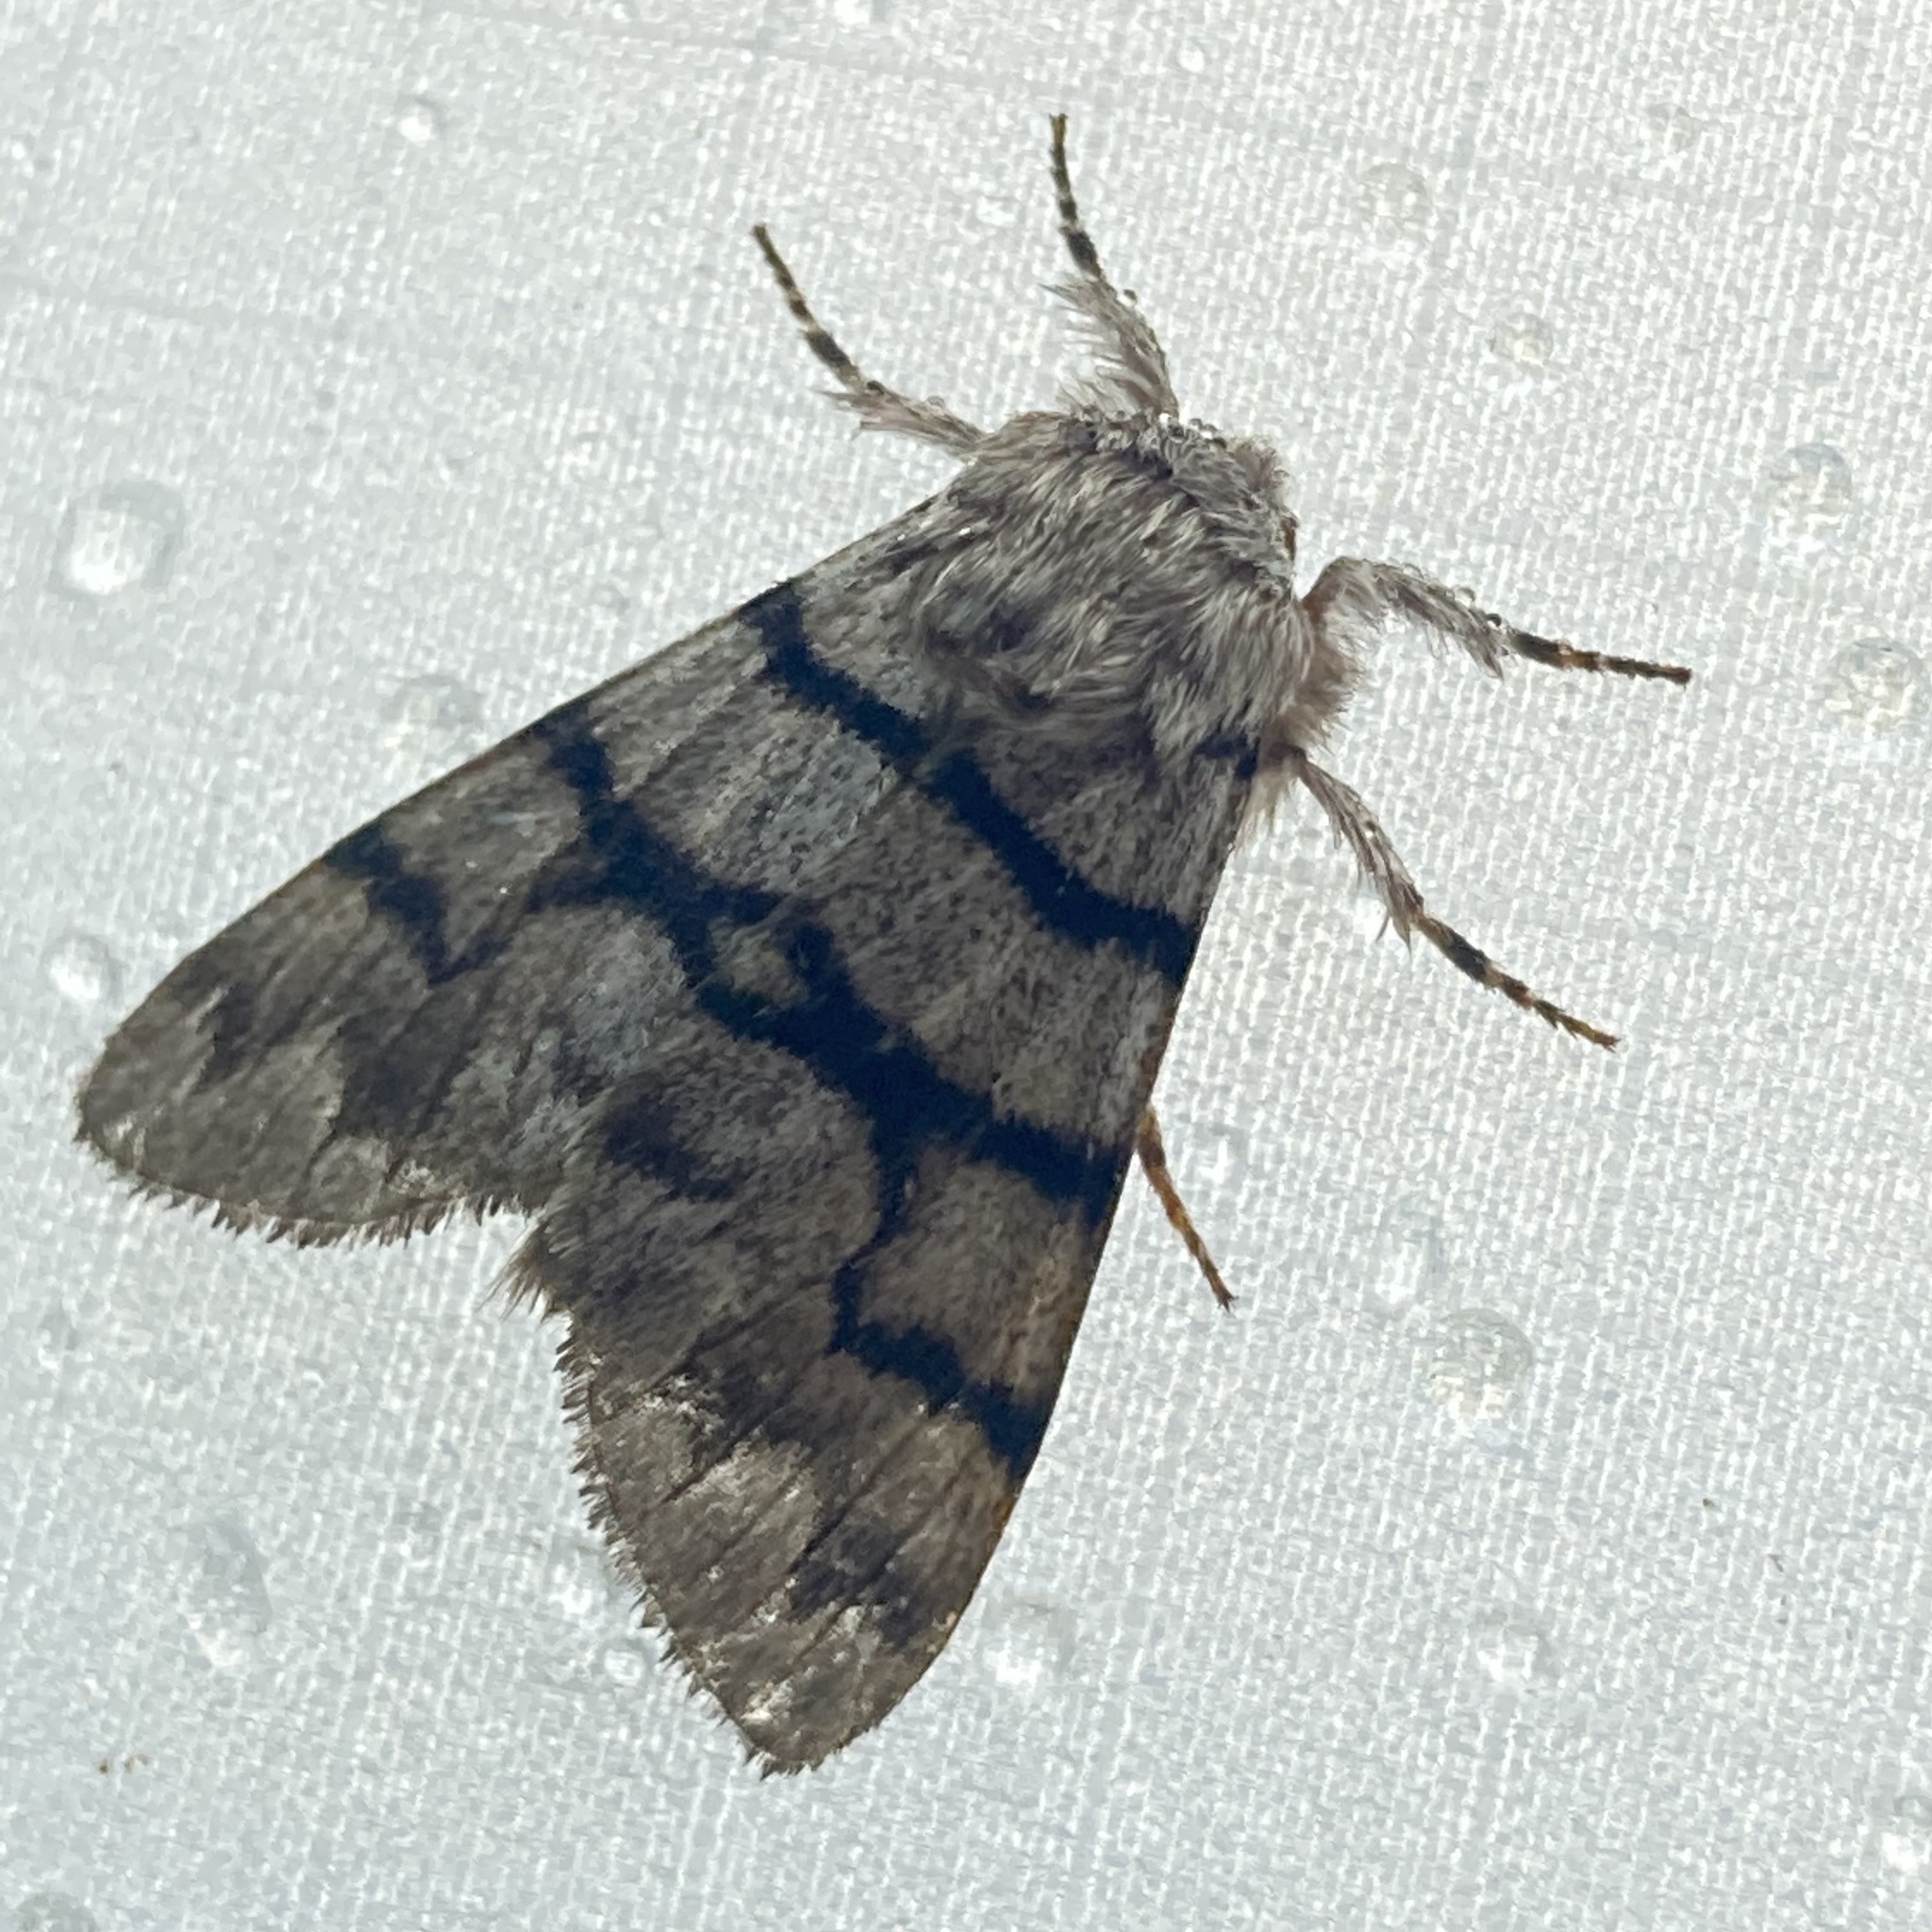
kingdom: Animalia
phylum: Arthropoda
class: Insecta
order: Lepidoptera
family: Noctuidae
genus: Panthea
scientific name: Panthea furcilla
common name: Eastern panthea moth
